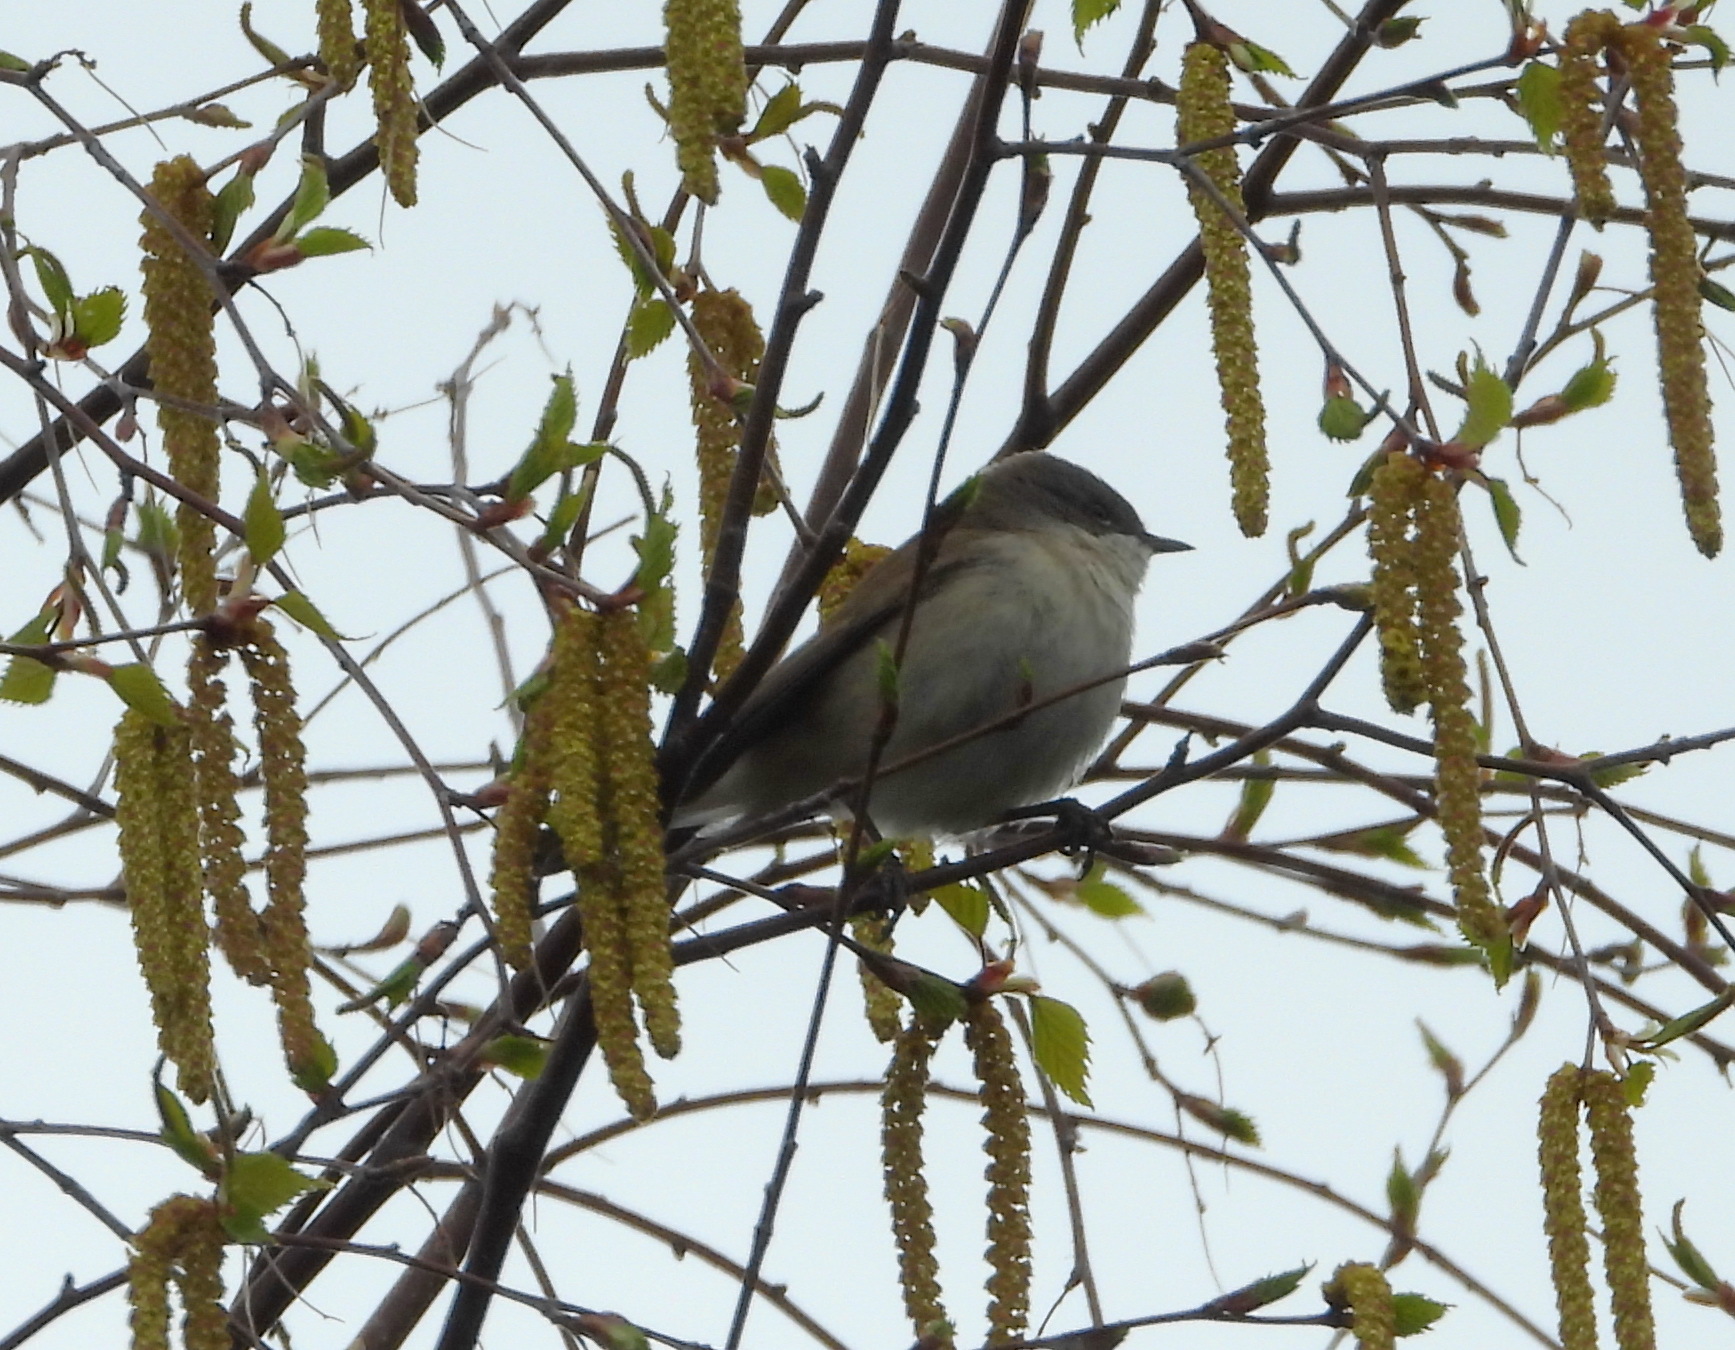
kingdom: Animalia
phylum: Chordata
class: Aves
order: Passeriformes
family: Sylviidae
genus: Sylvia
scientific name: Sylvia curruca
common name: Lesser whitethroat
